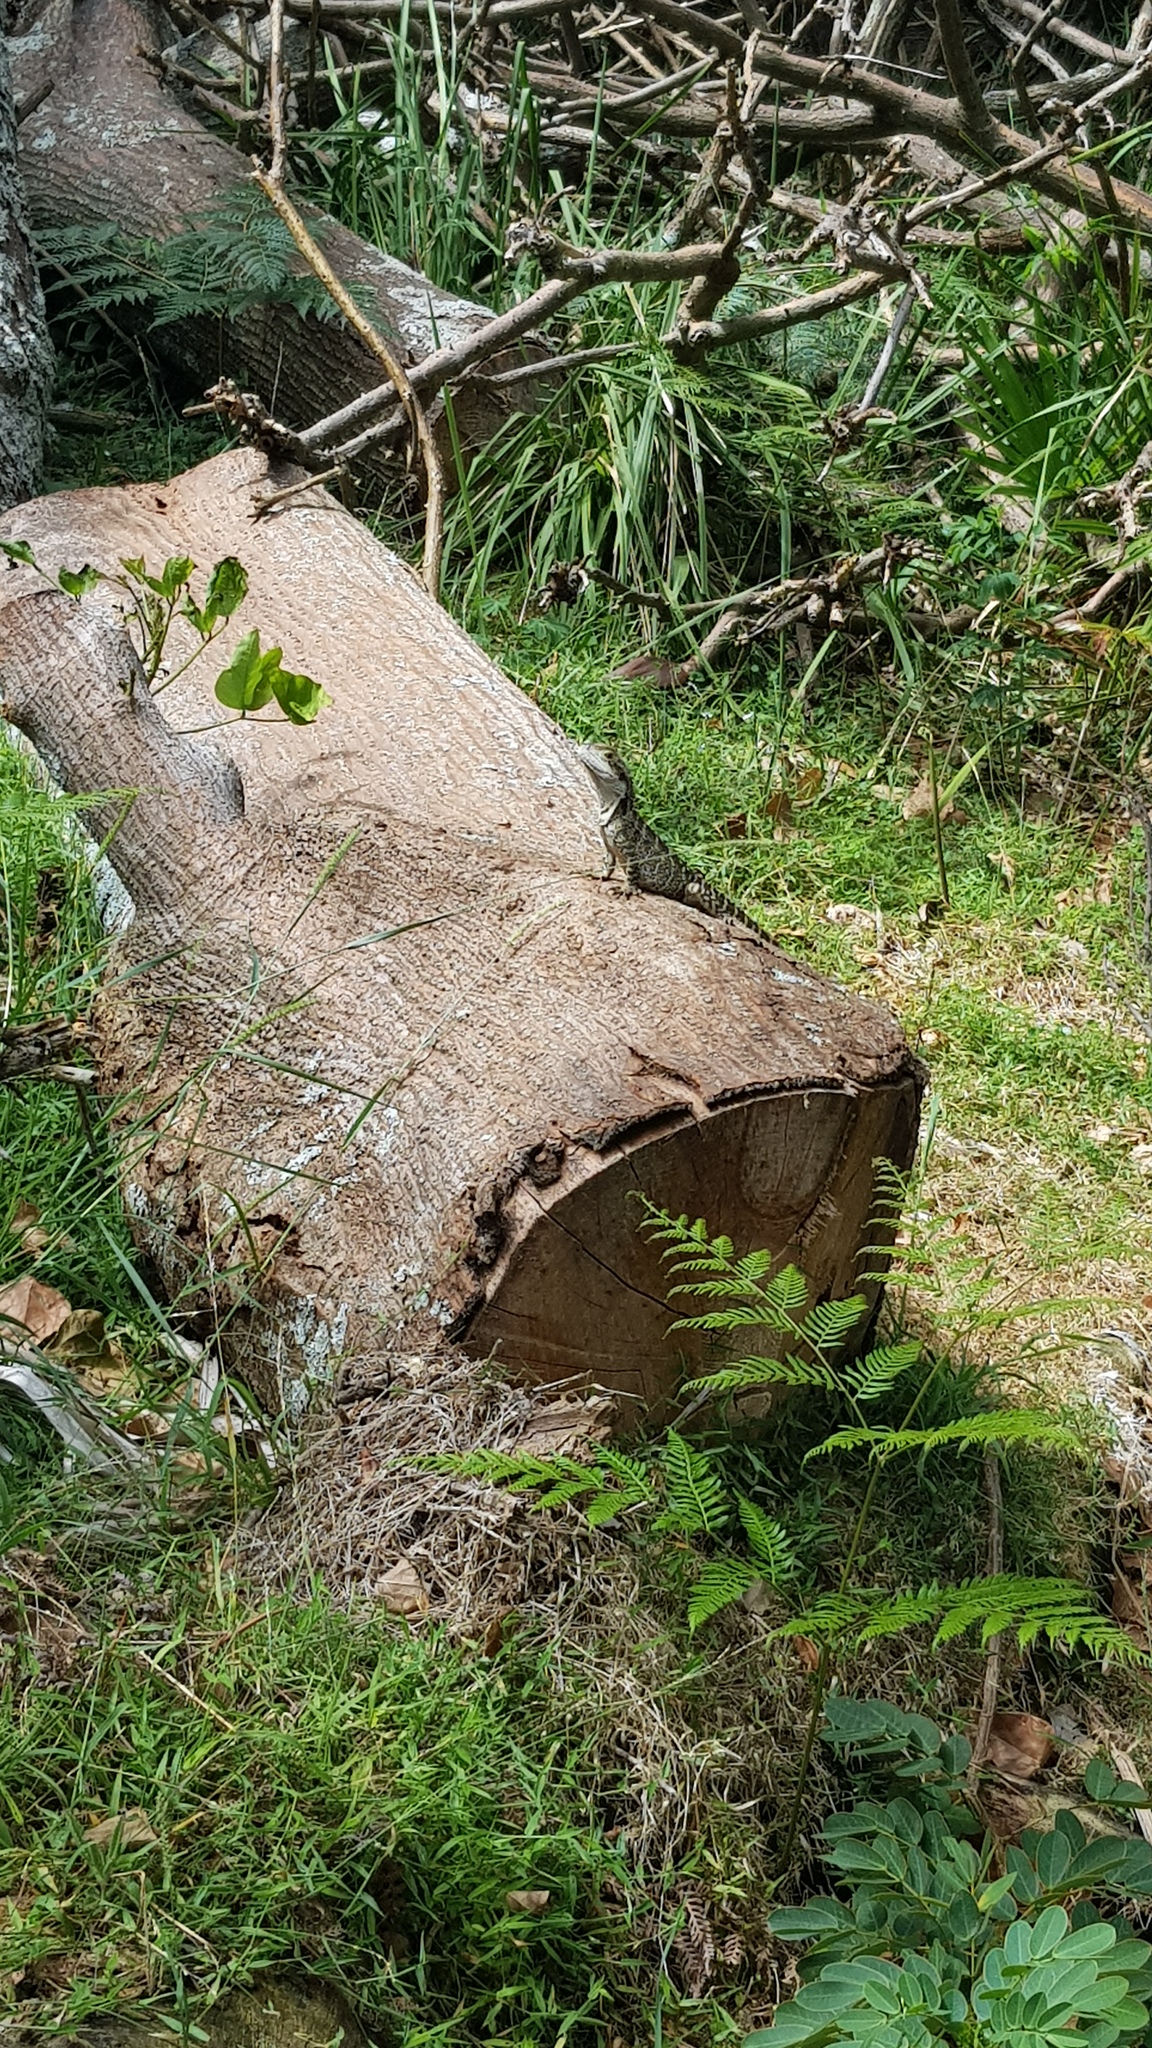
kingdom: Animalia
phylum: Chordata
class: Squamata
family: Agamidae
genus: Intellagama
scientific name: Intellagama lesueurii
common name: Eastern water dragon
